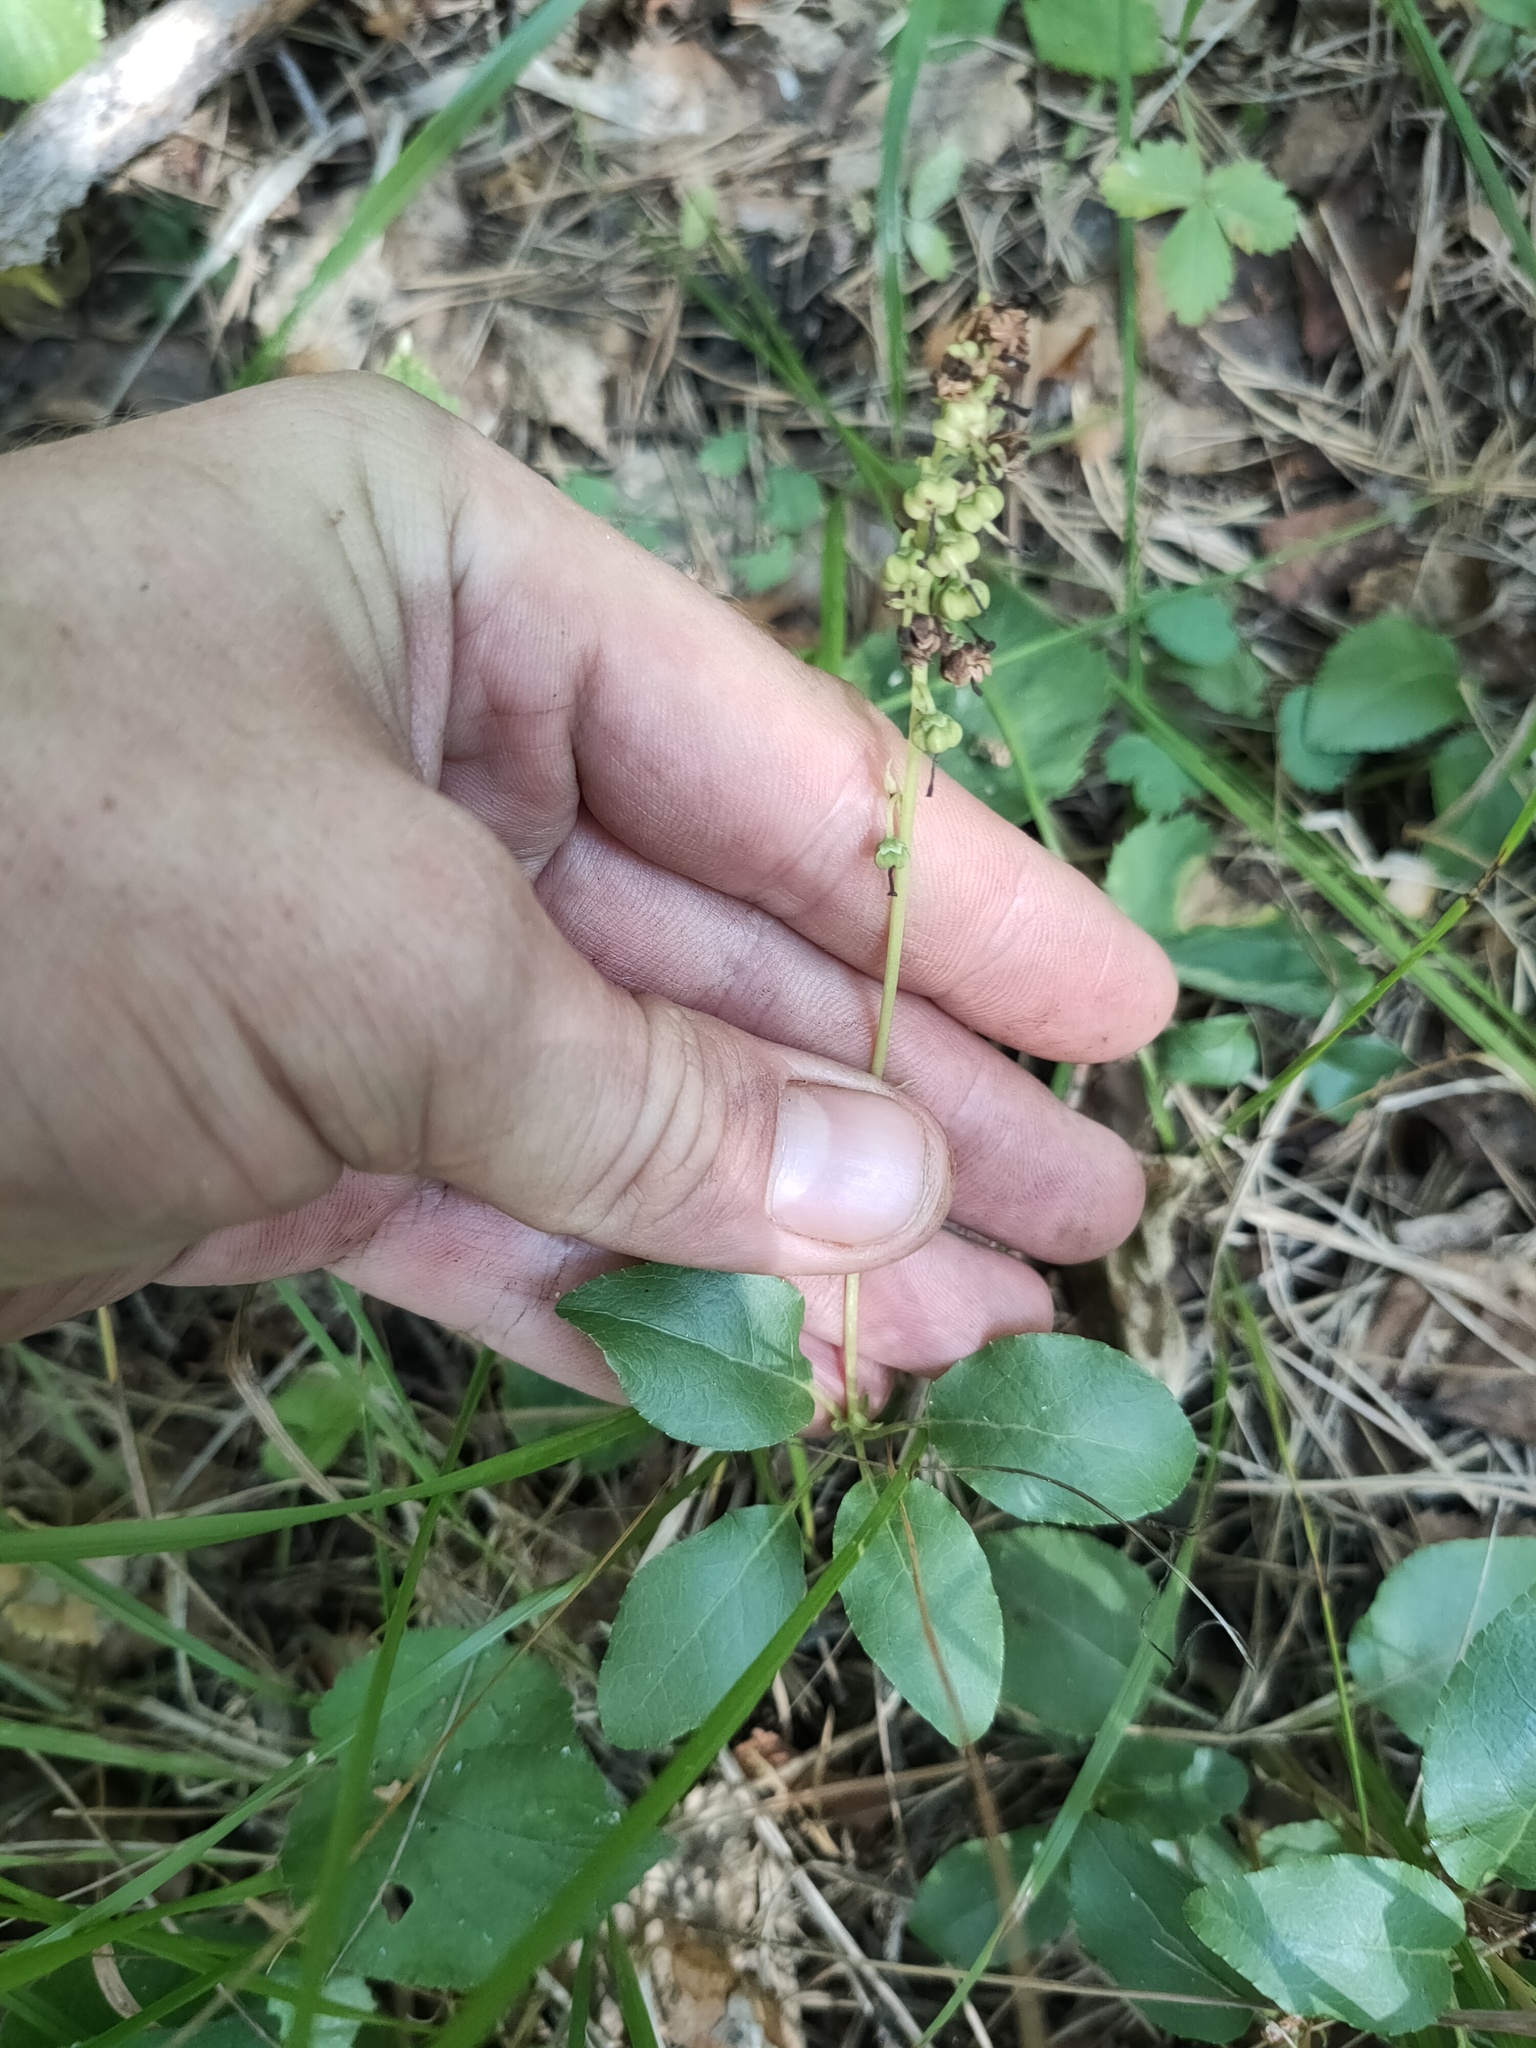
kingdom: Plantae
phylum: Tracheophyta
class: Magnoliopsida
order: Ericales
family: Ericaceae
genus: Orthilia
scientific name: Orthilia secunda
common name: One-sided orthilia
